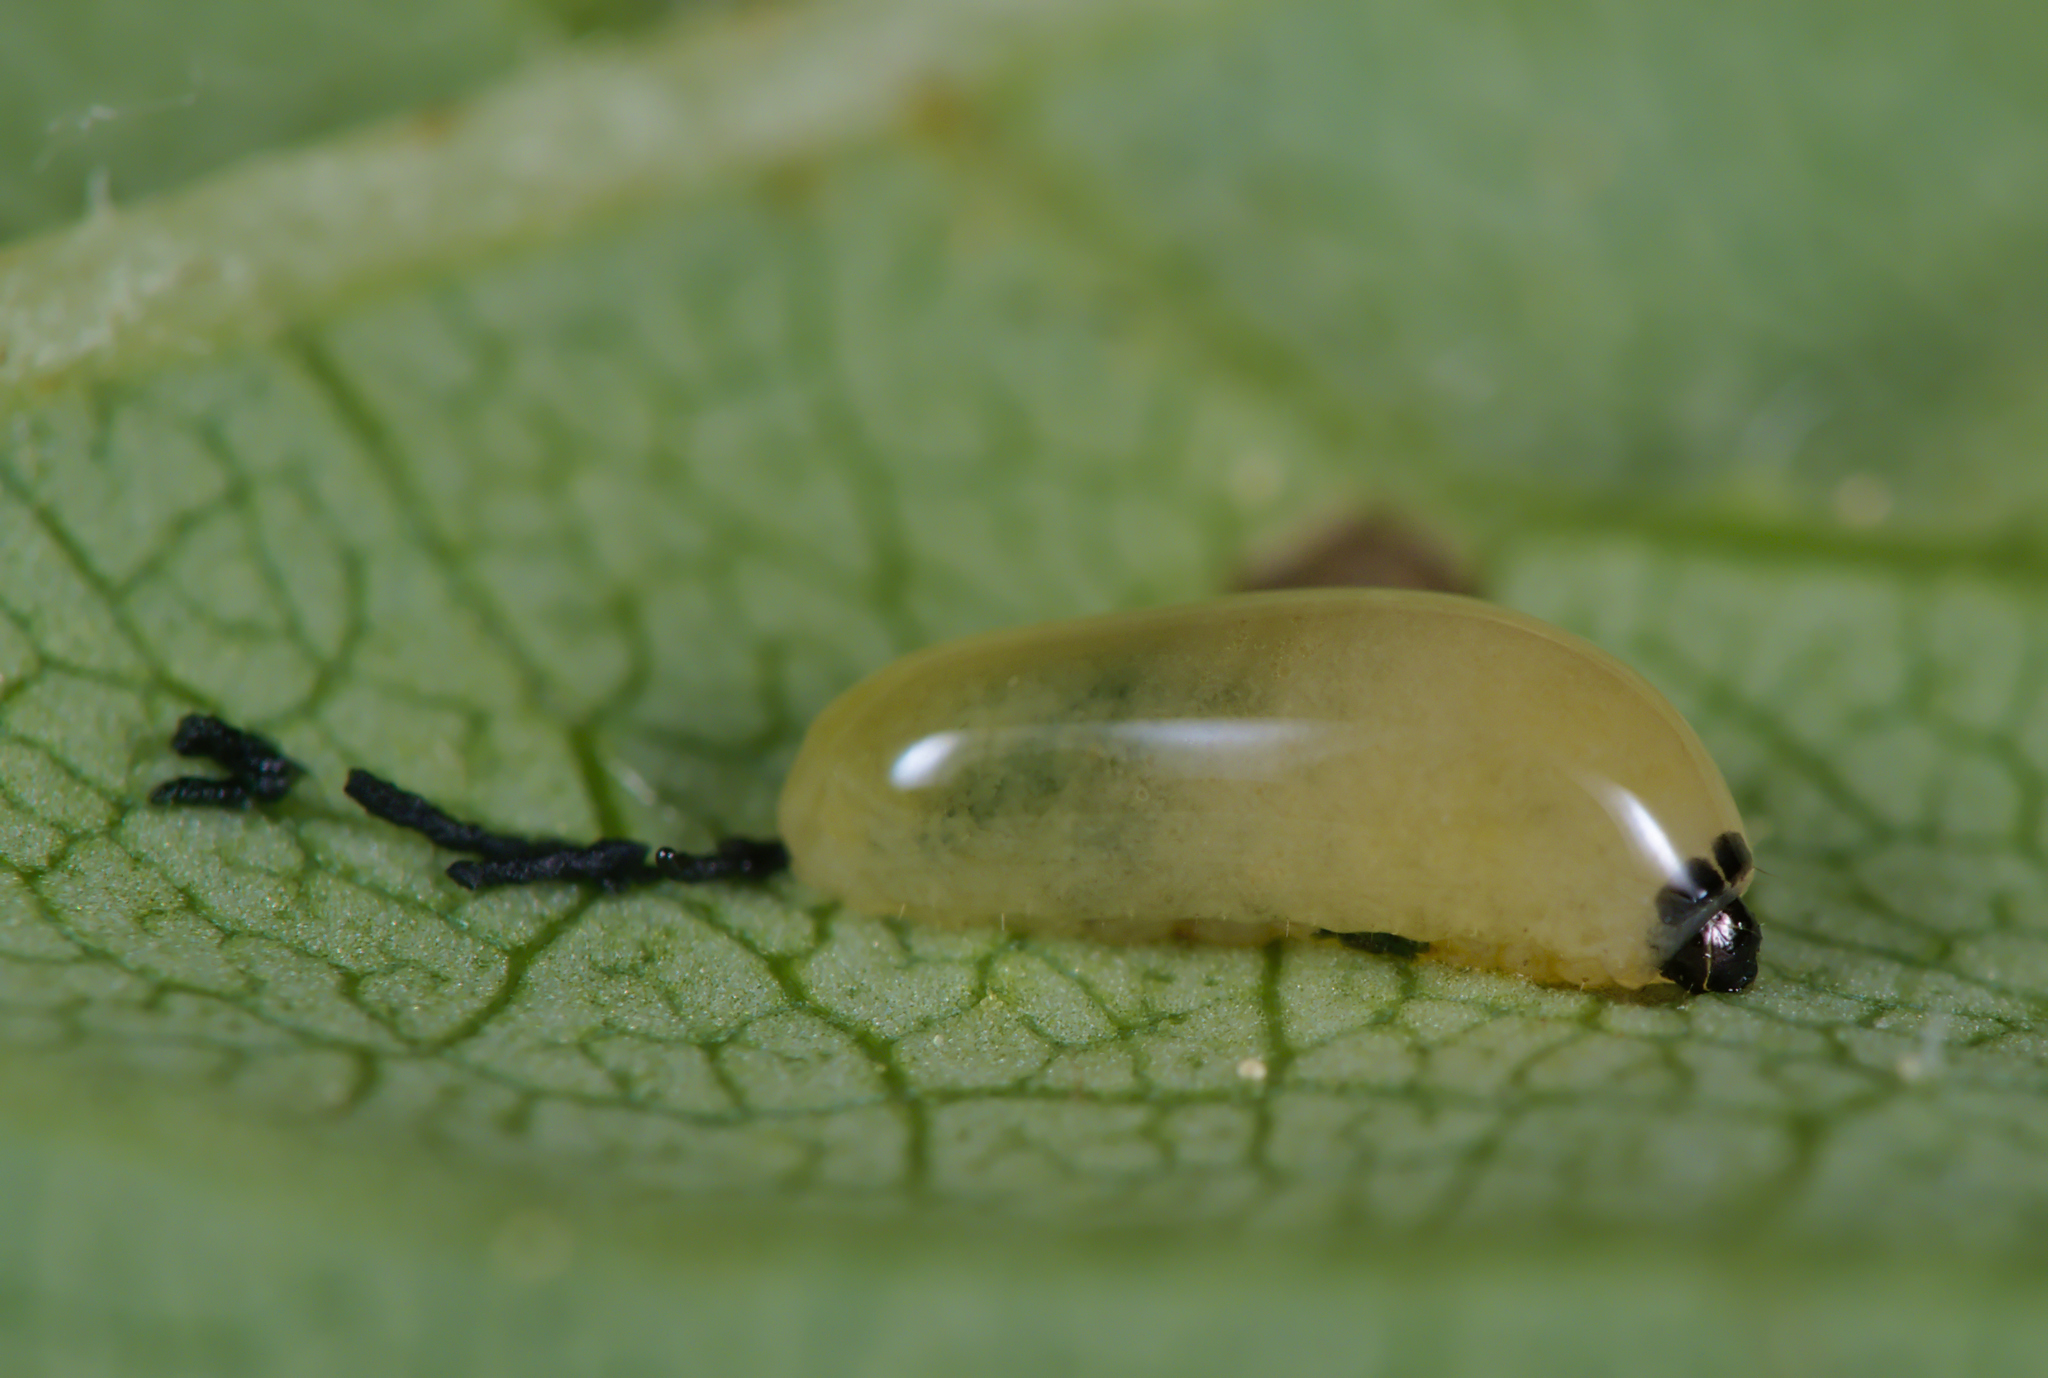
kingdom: Animalia
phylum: Arthropoda
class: Insecta
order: Coleoptera
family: Curculionidae
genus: Stereonychus
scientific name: Stereonychus fraxini
